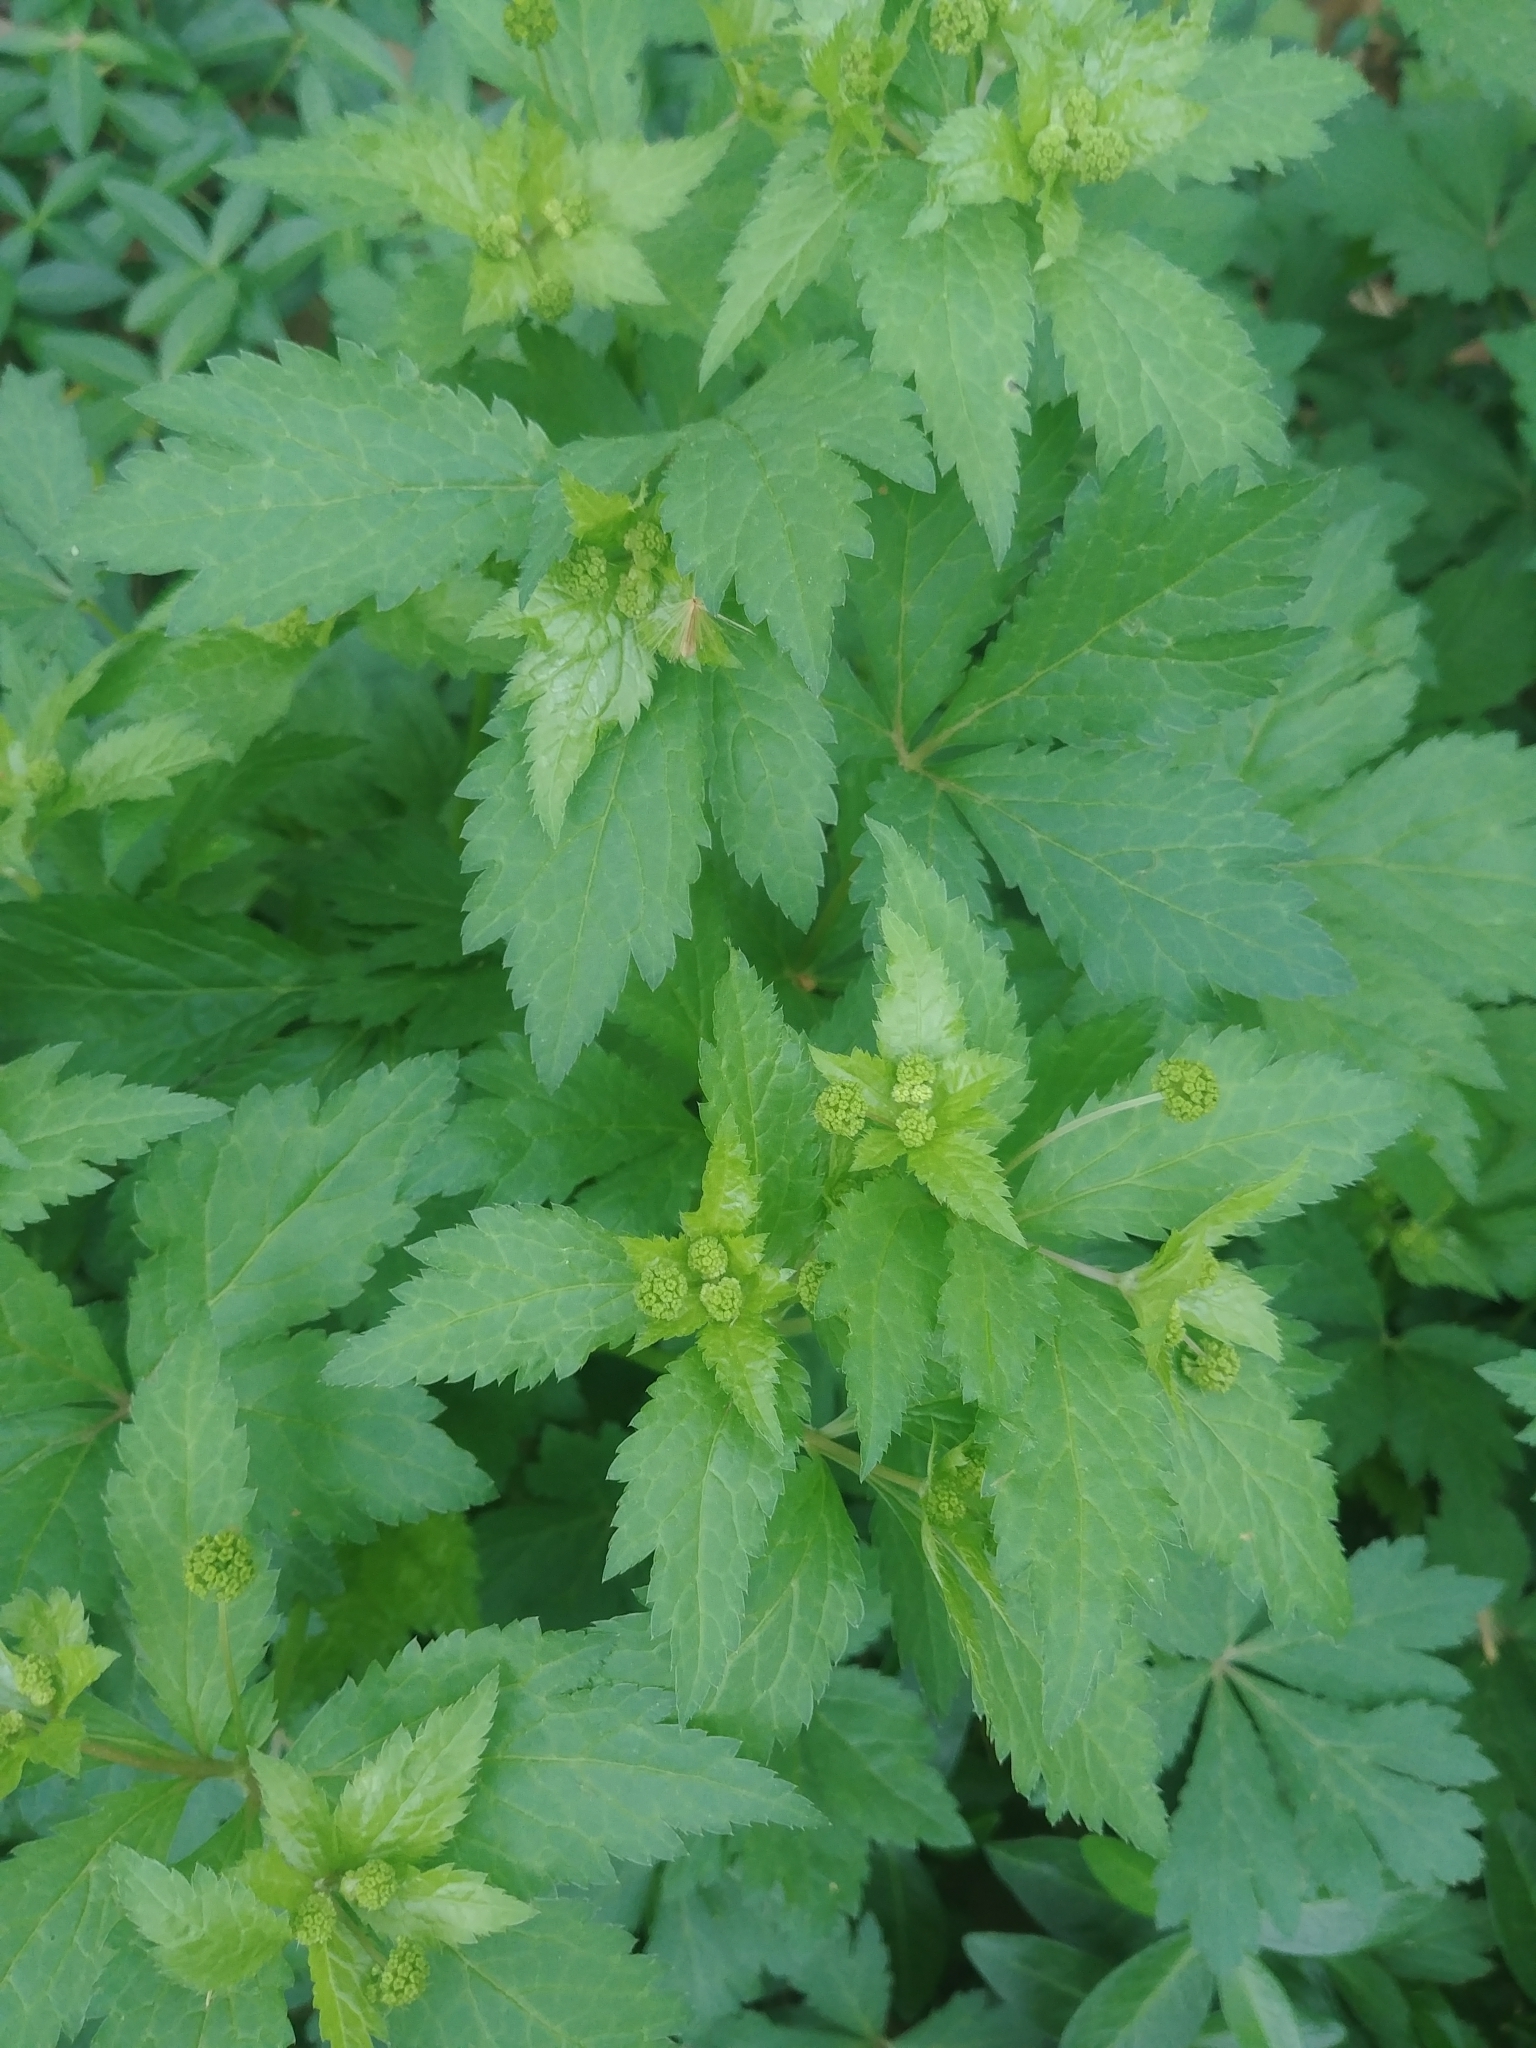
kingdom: Plantae
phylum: Tracheophyta
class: Magnoliopsida
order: Apiales
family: Apiaceae
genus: Sanicula
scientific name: Sanicula odorata
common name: Cluster sanicle
